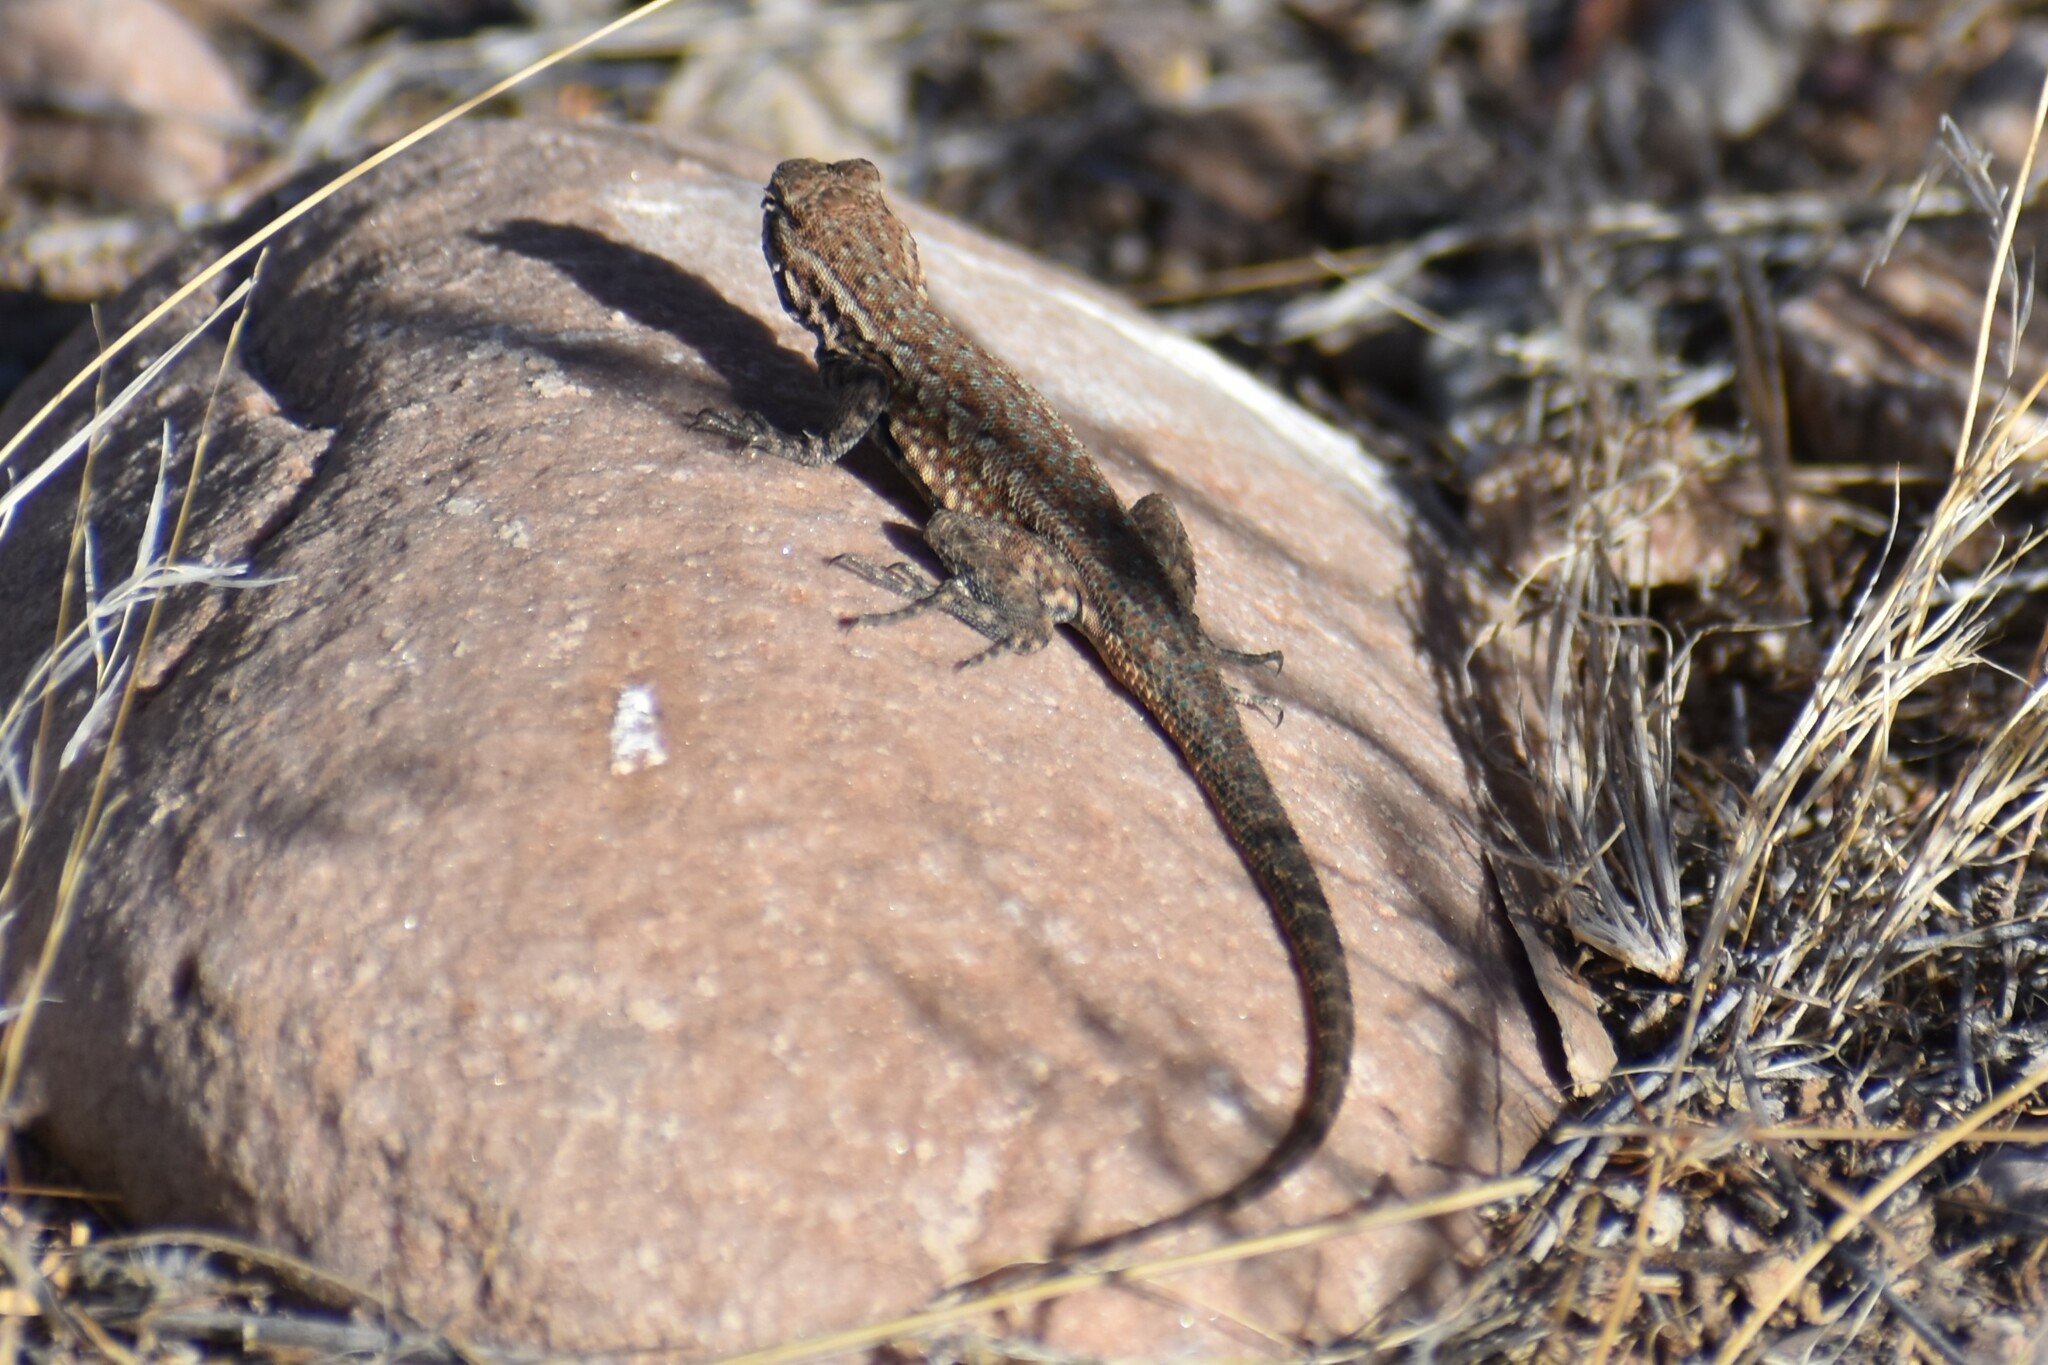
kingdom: Animalia
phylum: Chordata
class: Squamata
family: Phrynosomatidae
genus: Uta
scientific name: Uta stansburiana
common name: Side-blotched lizard
